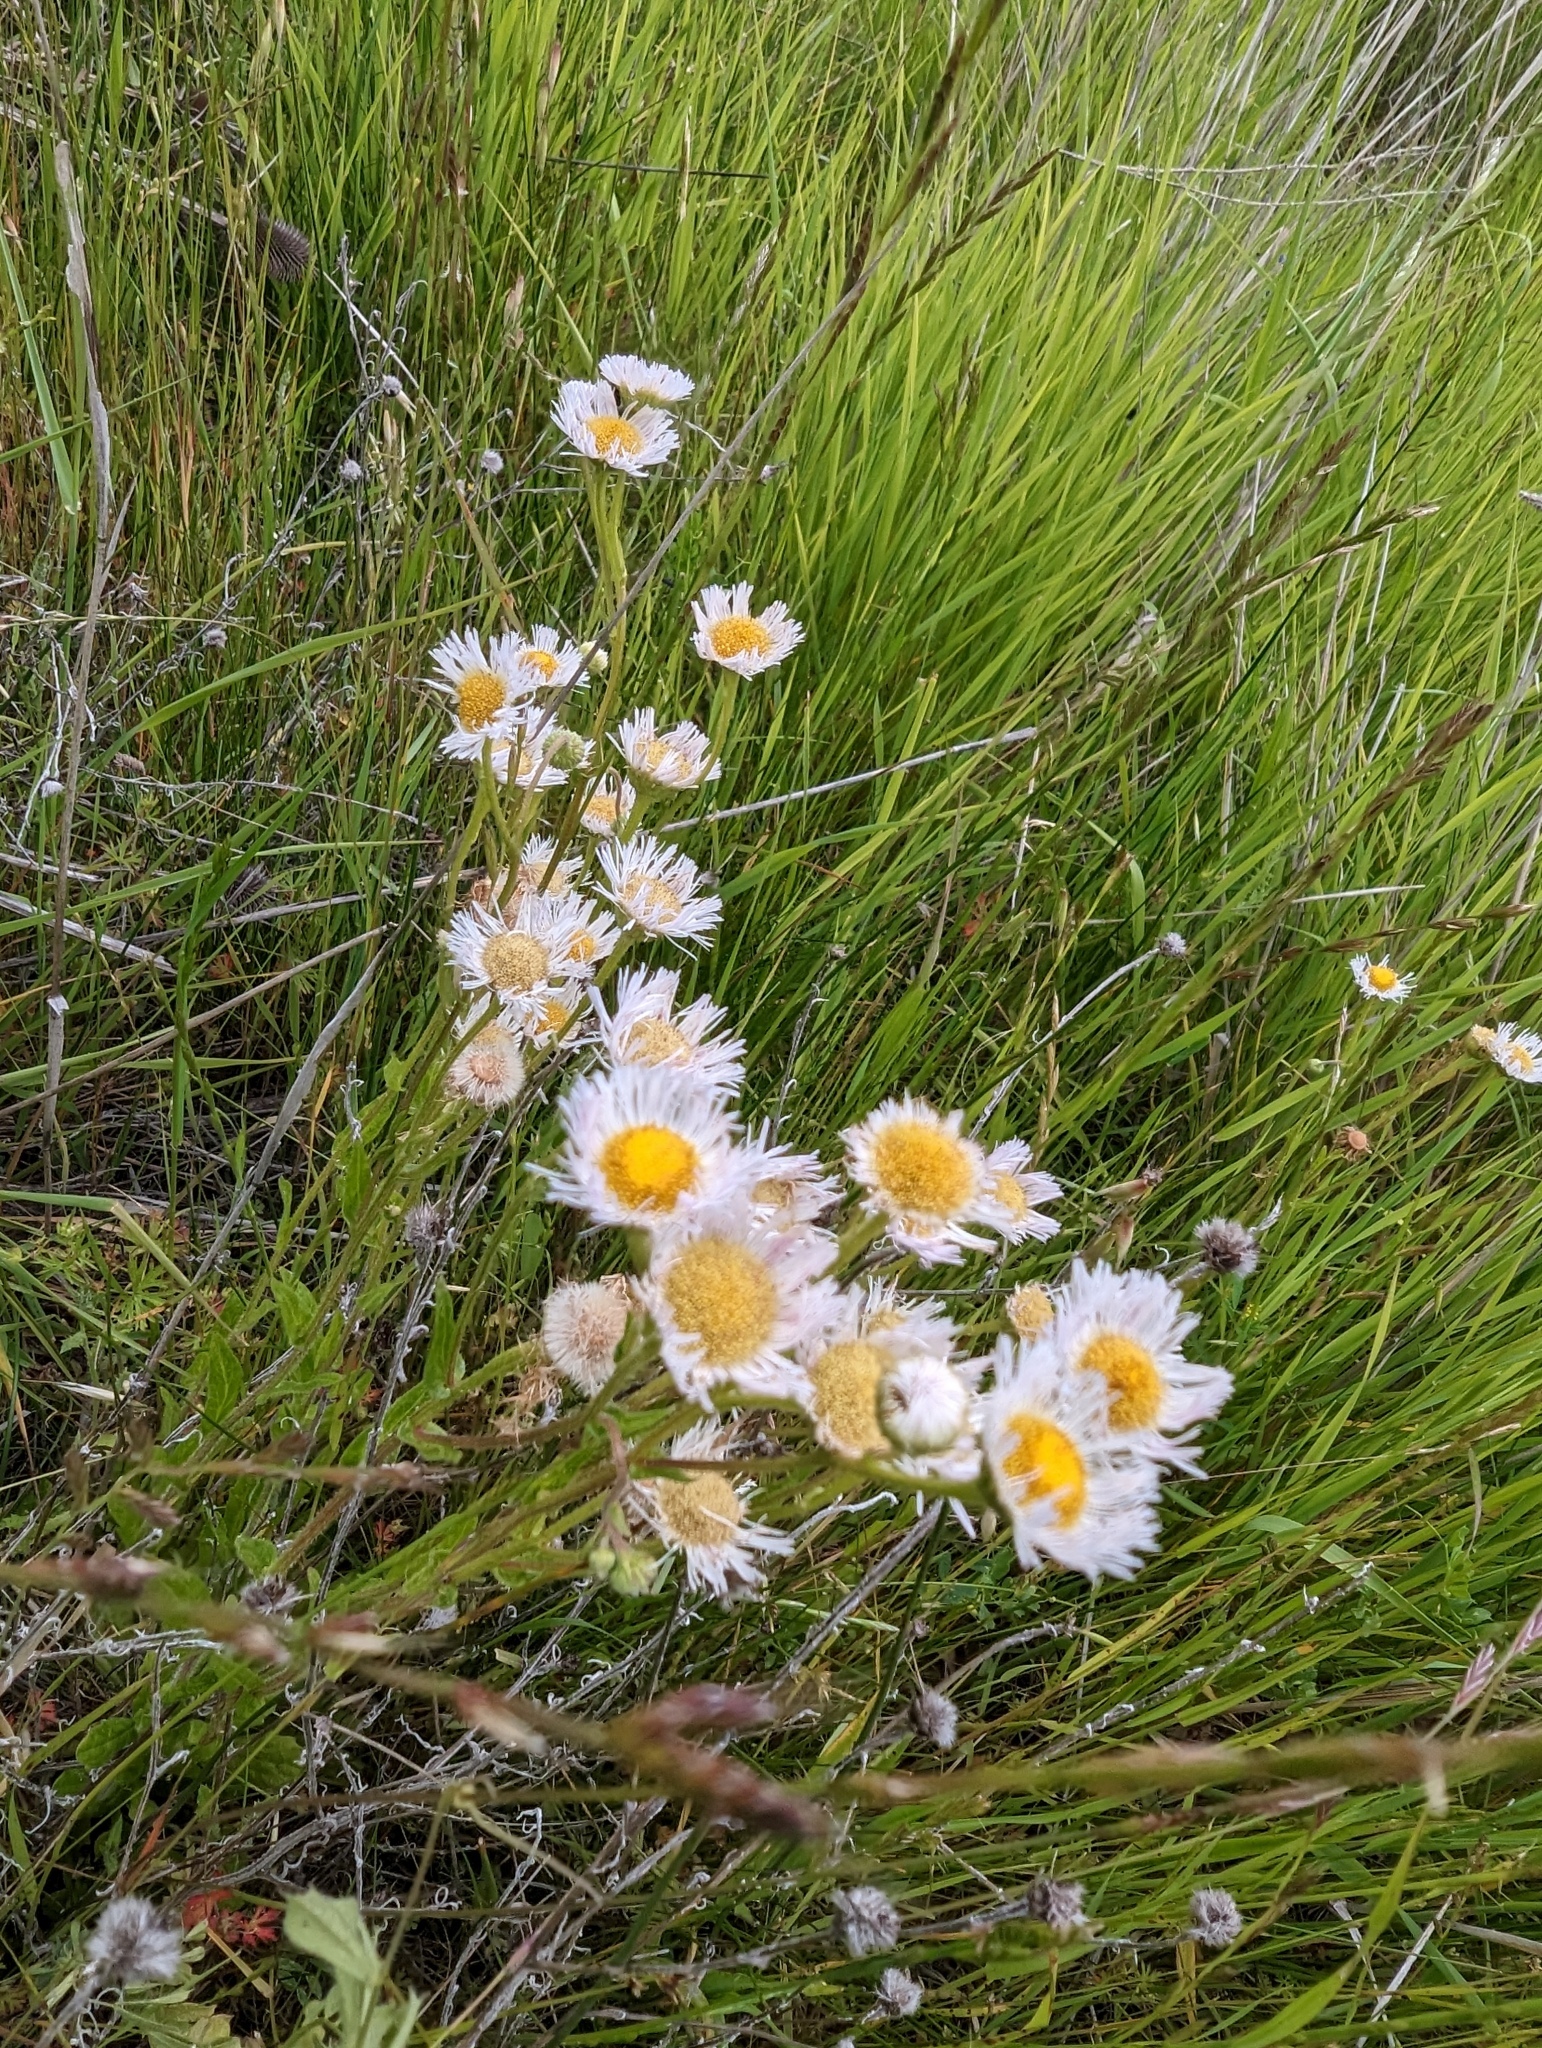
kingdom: Plantae
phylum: Tracheophyta
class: Magnoliopsida
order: Asterales
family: Asteraceae
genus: Erigeron
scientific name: Erigeron philadelphicus
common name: Robin's-plantain
